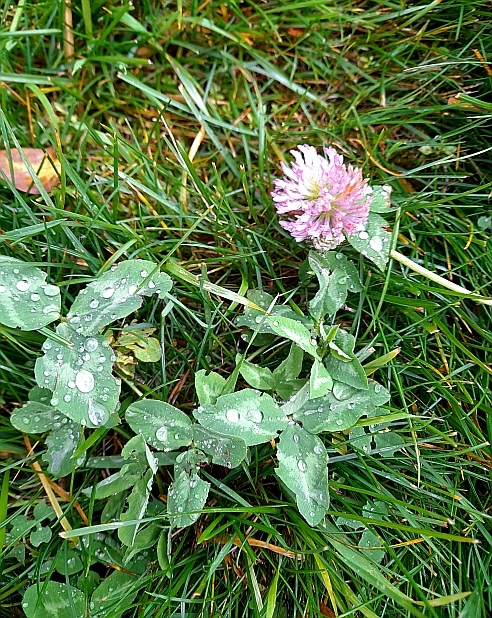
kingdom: Plantae
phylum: Tracheophyta
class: Magnoliopsida
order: Fabales
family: Fabaceae
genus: Trifolium
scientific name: Trifolium pratense
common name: Red clover
